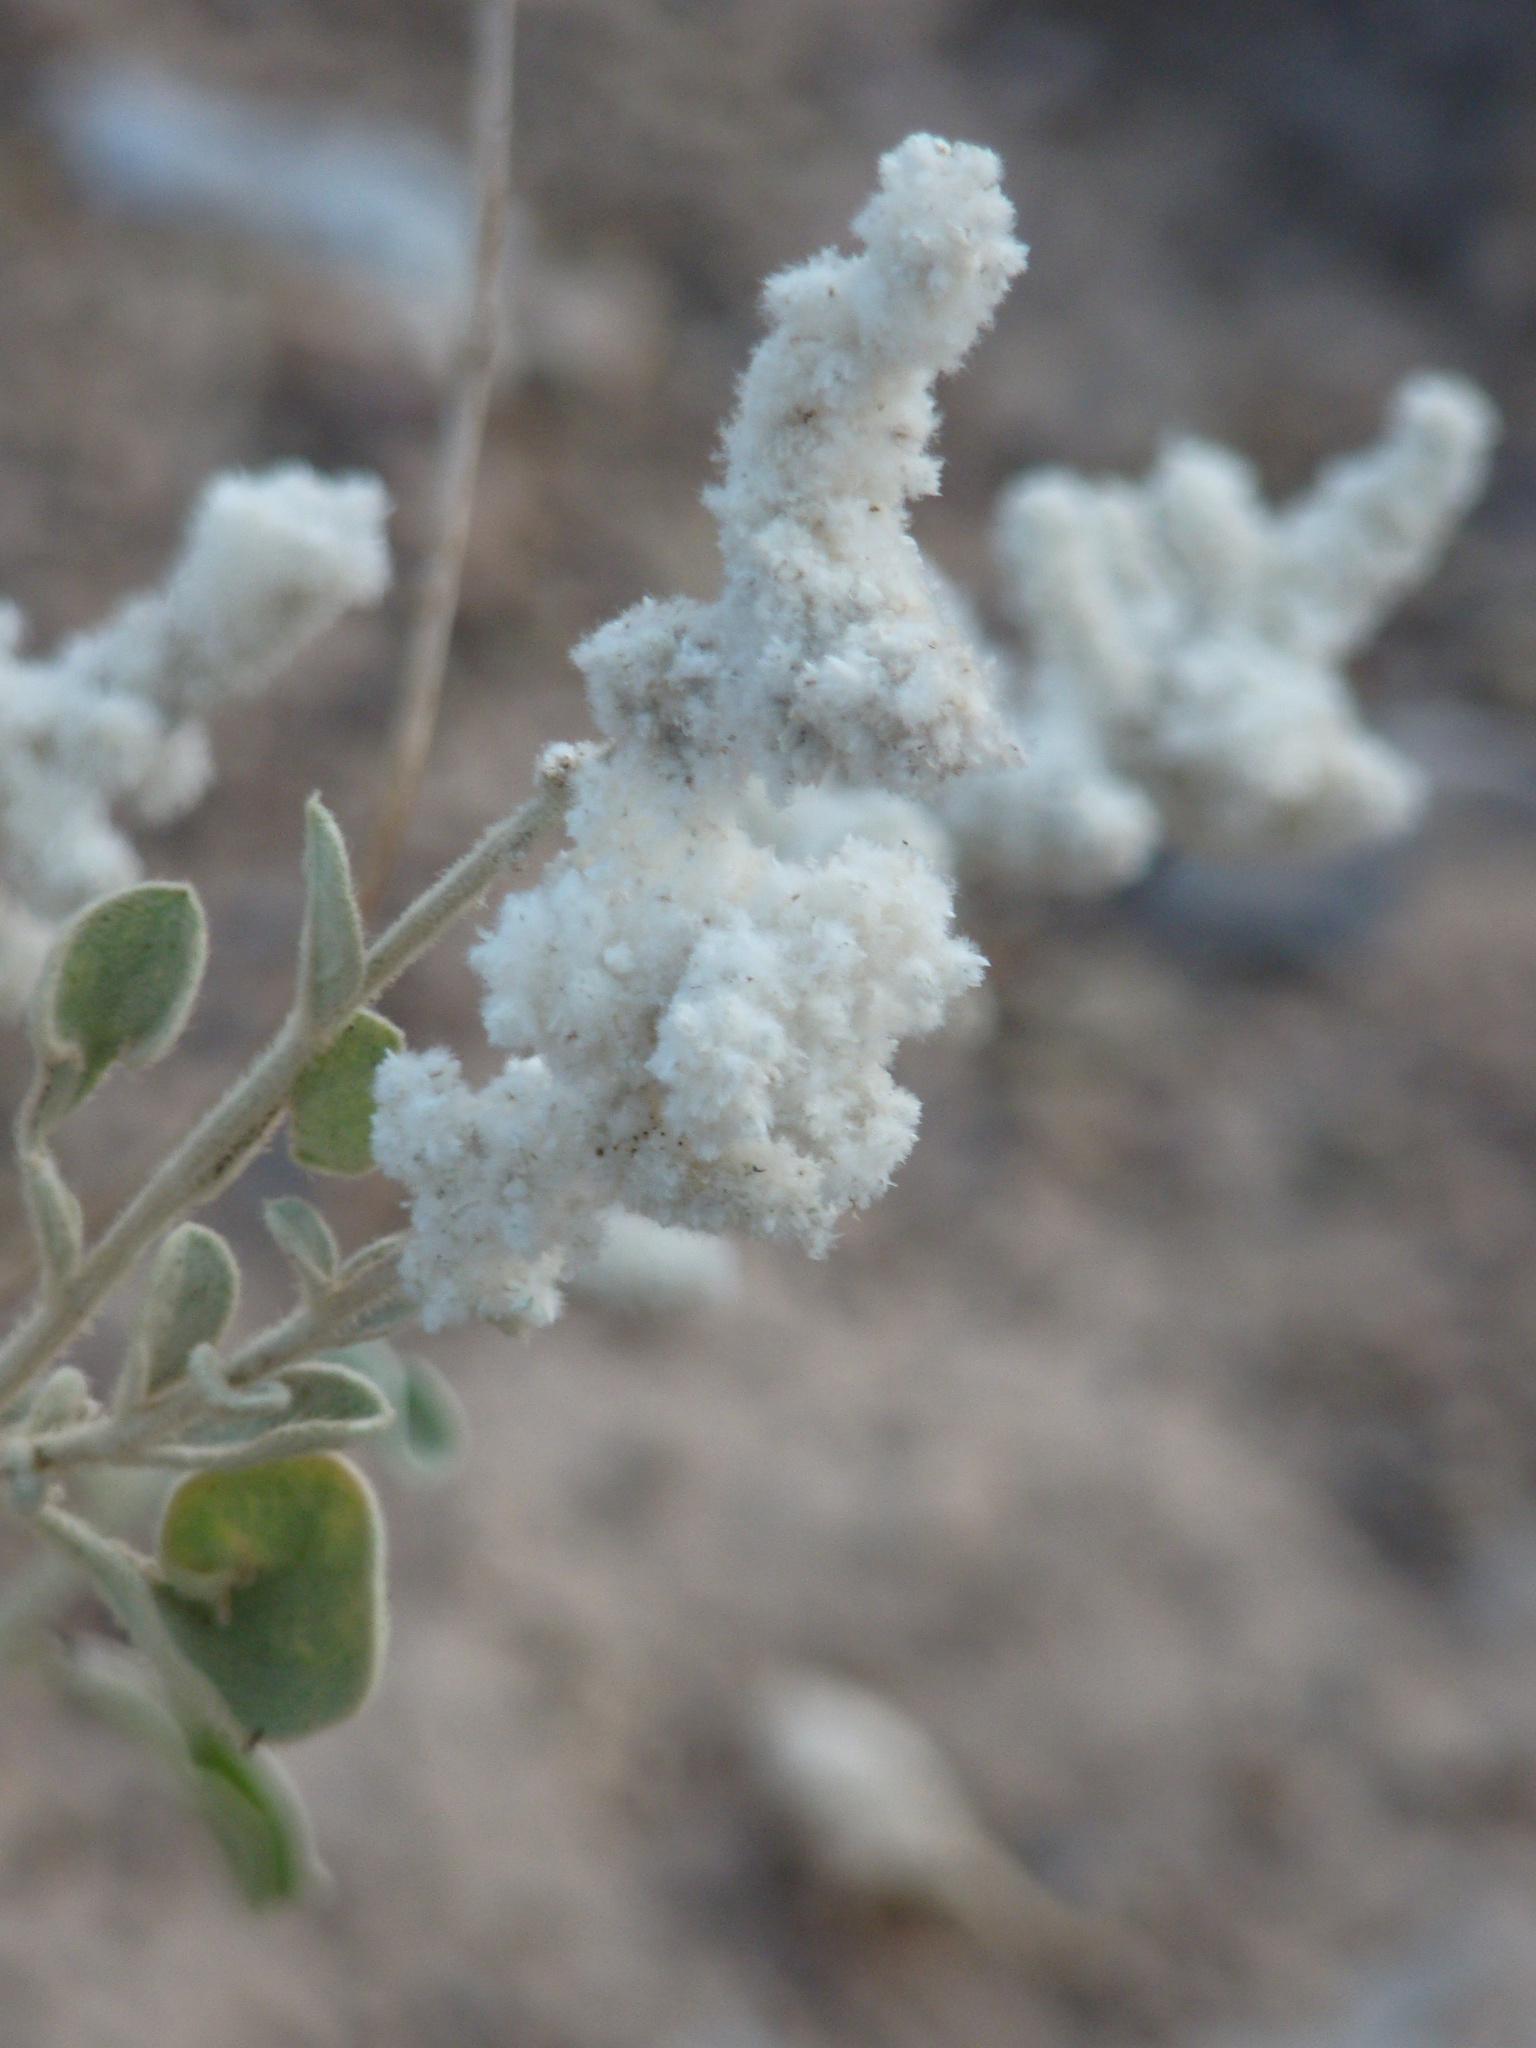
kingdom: Plantae
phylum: Tracheophyta
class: Magnoliopsida
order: Caryophyllales
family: Amaranthaceae
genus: Aerva
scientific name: Aerva javanica
